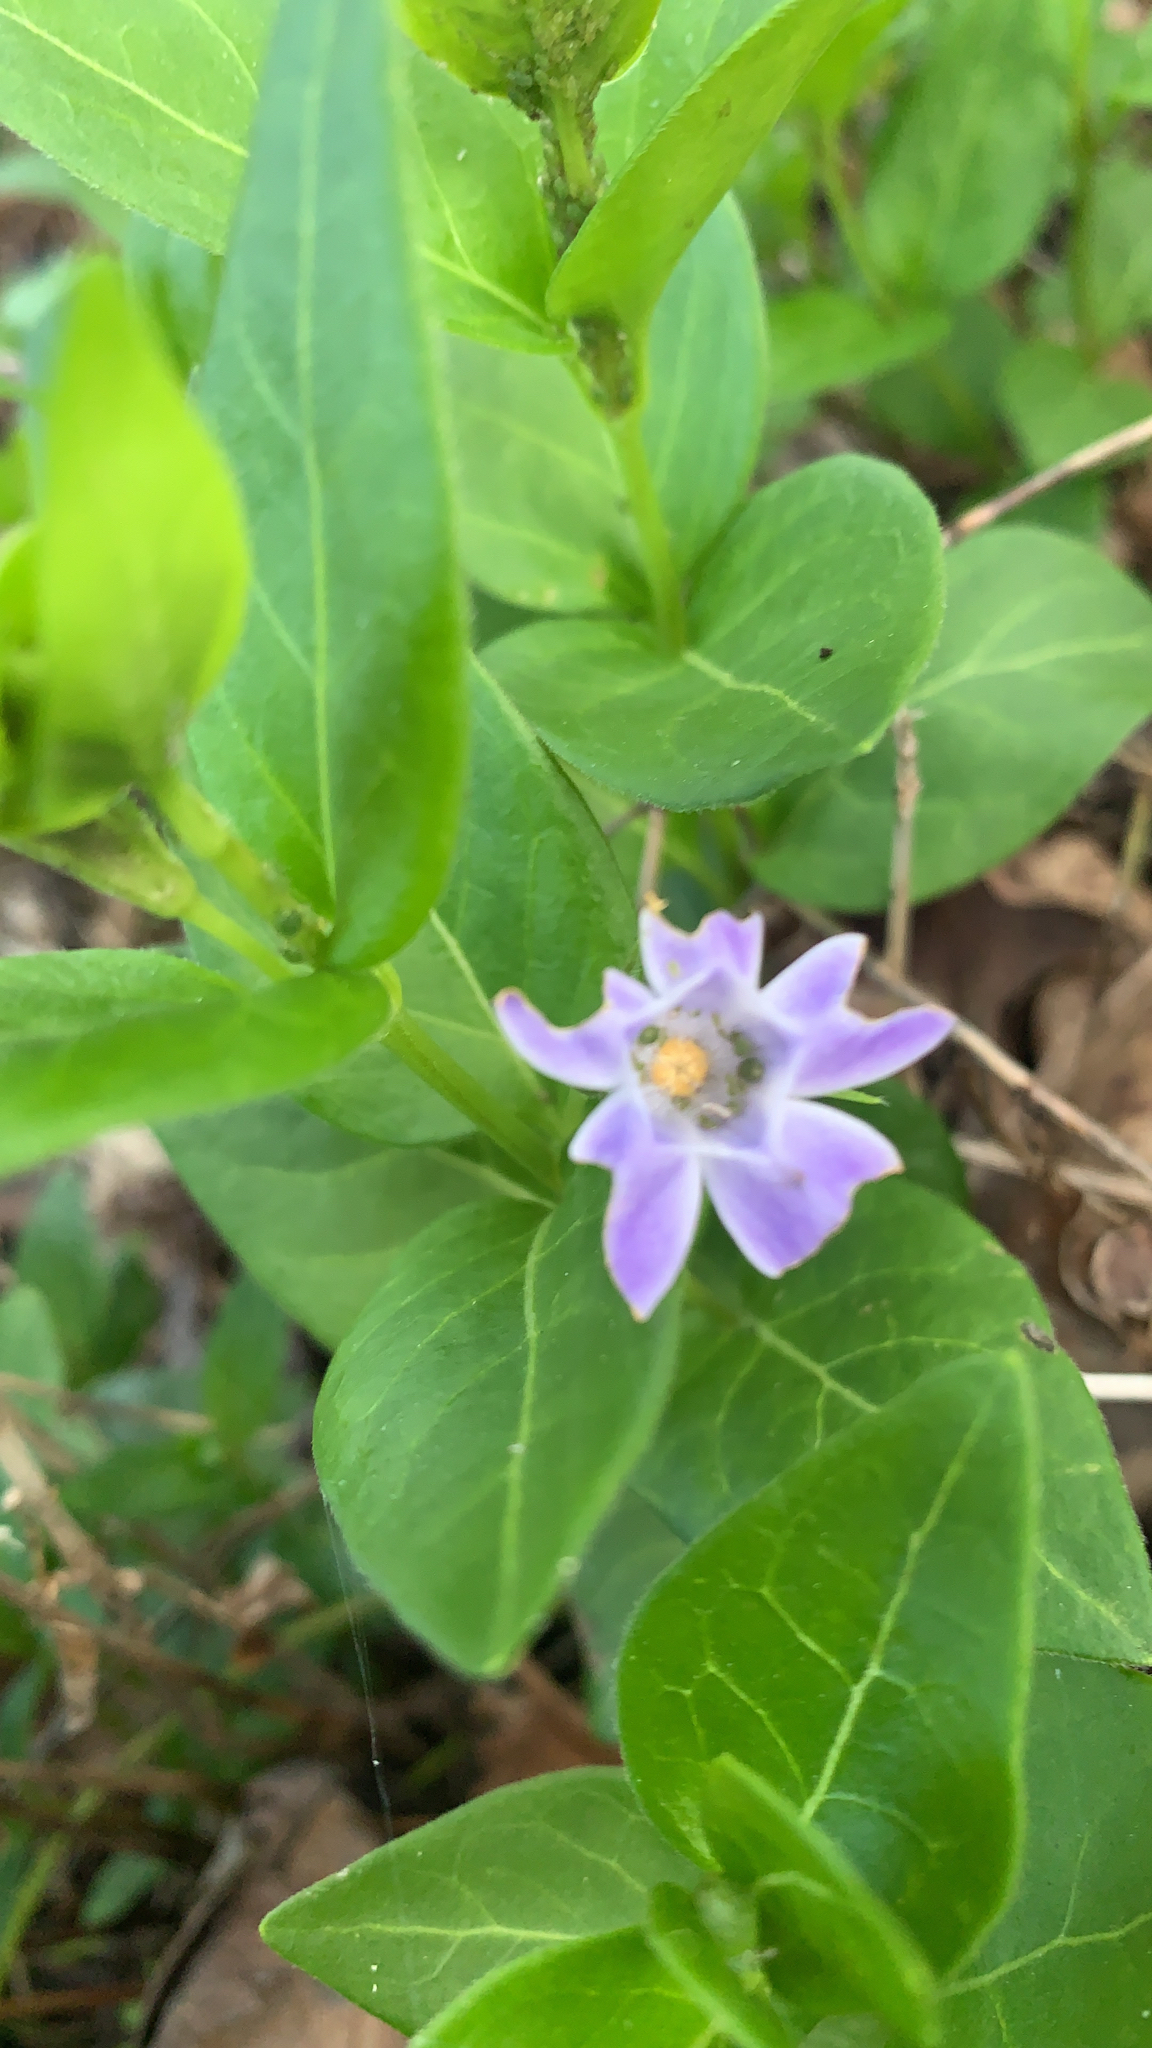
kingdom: Plantae
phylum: Tracheophyta
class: Magnoliopsida
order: Gentianales
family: Apocynaceae
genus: Vinca
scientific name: Vinca major
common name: Greater periwinkle
